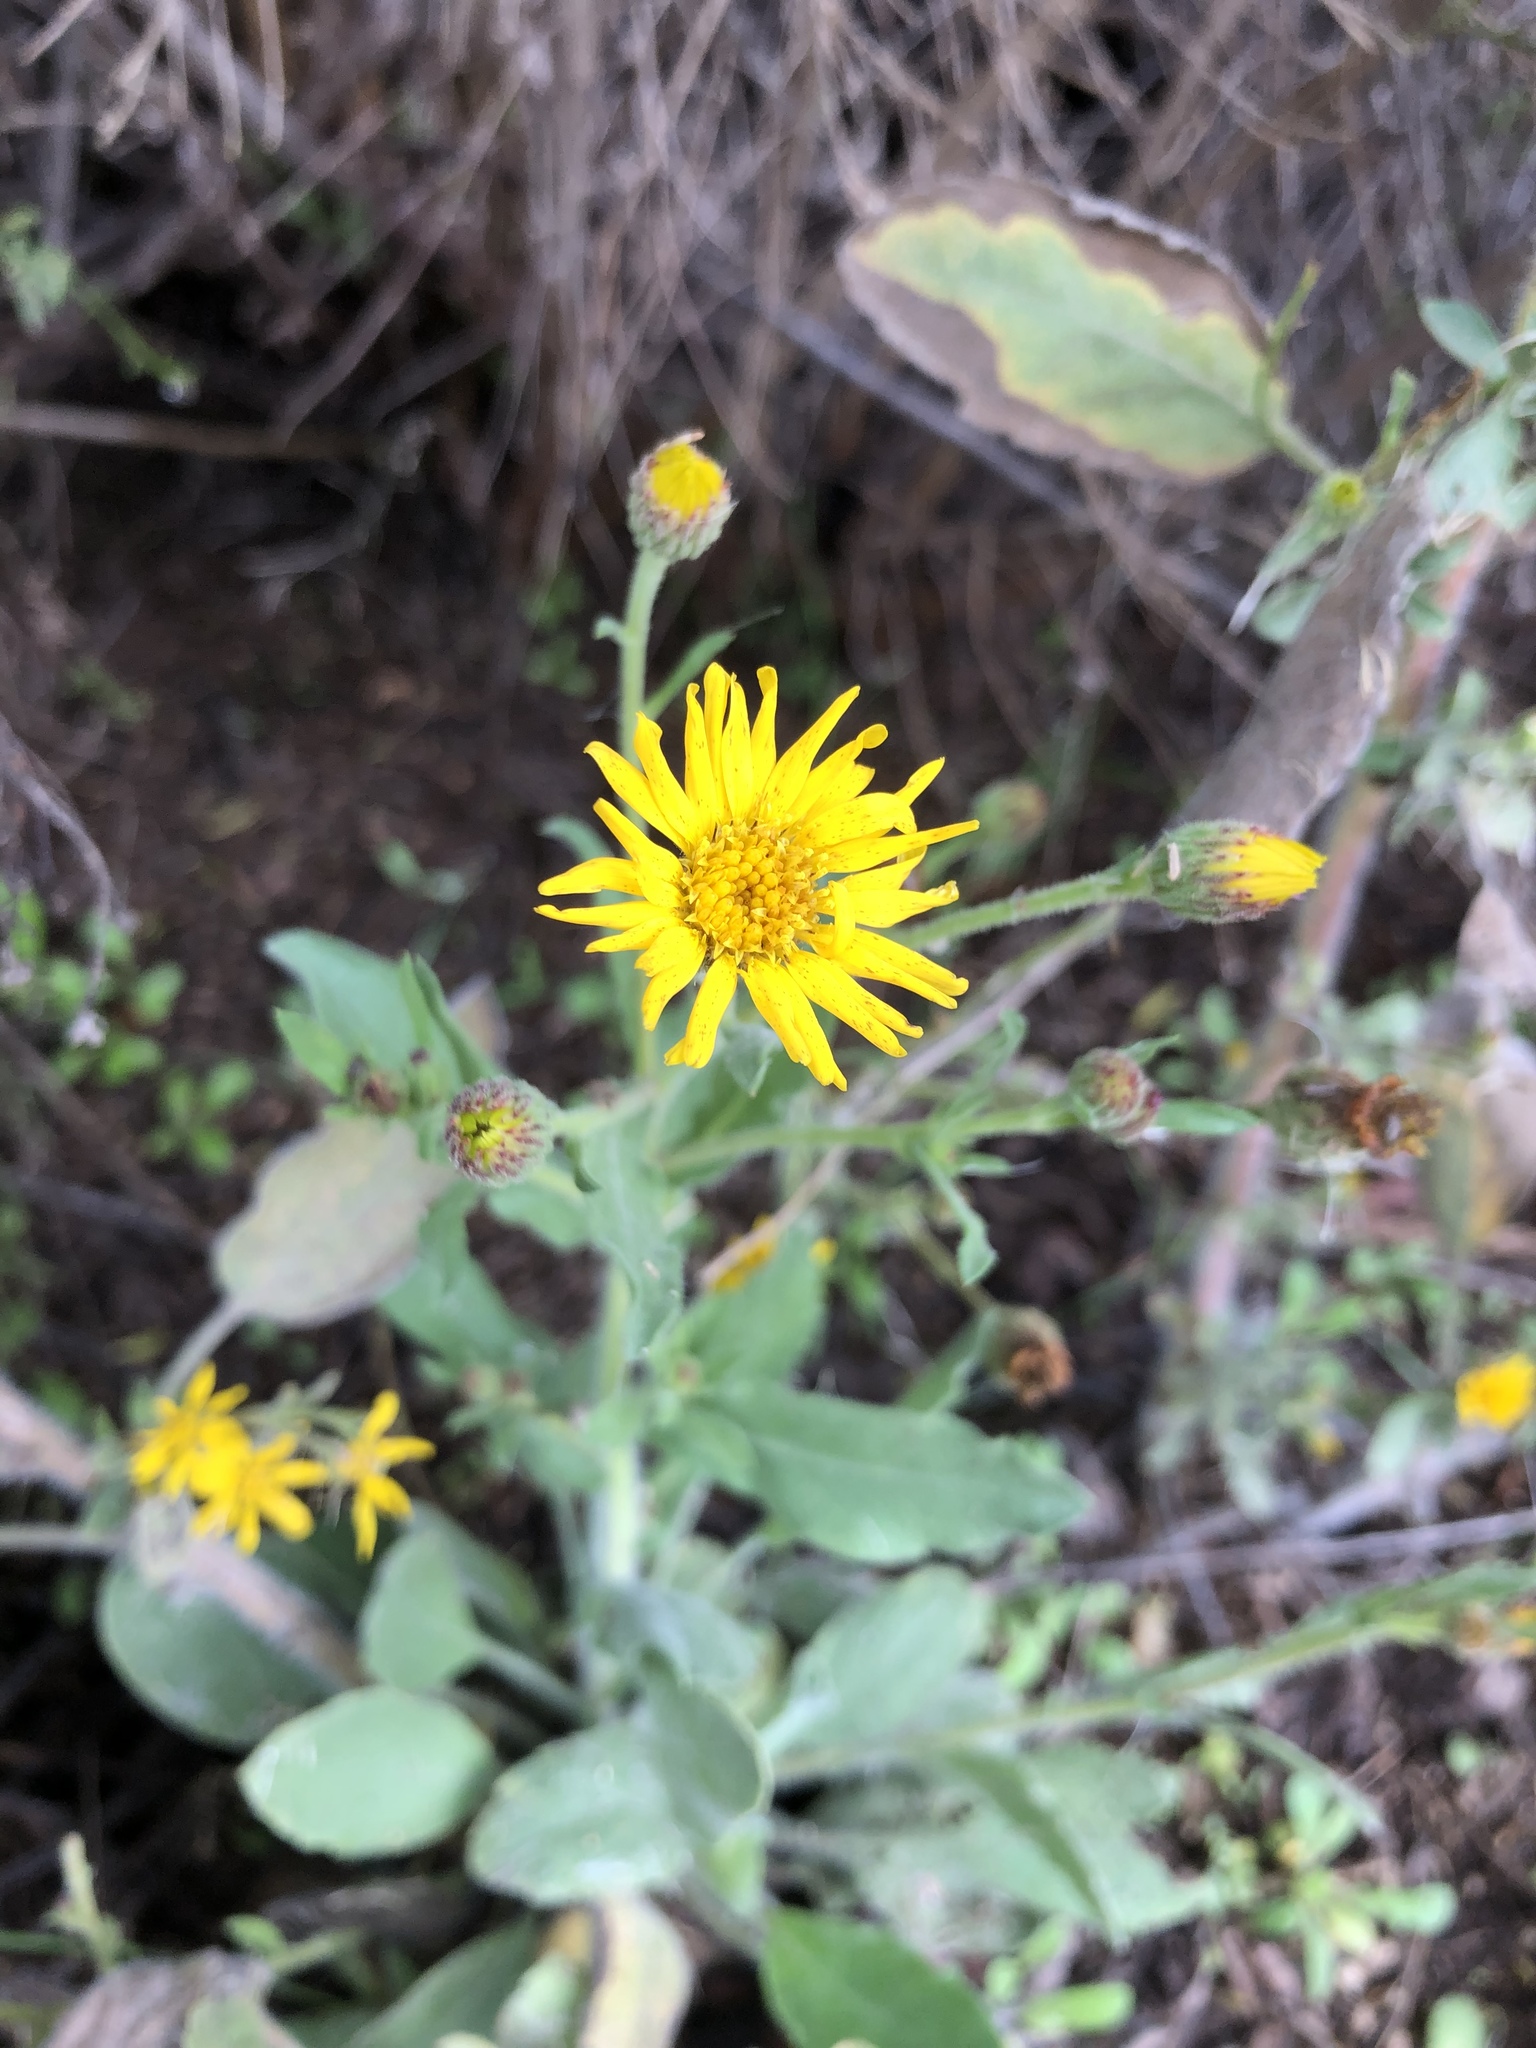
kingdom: Plantae
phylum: Tracheophyta
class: Magnoliopsida
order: Asterales
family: Asteraceae
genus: Heterotheca
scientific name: Heterotheca grandiflora
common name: Telegraphweed
